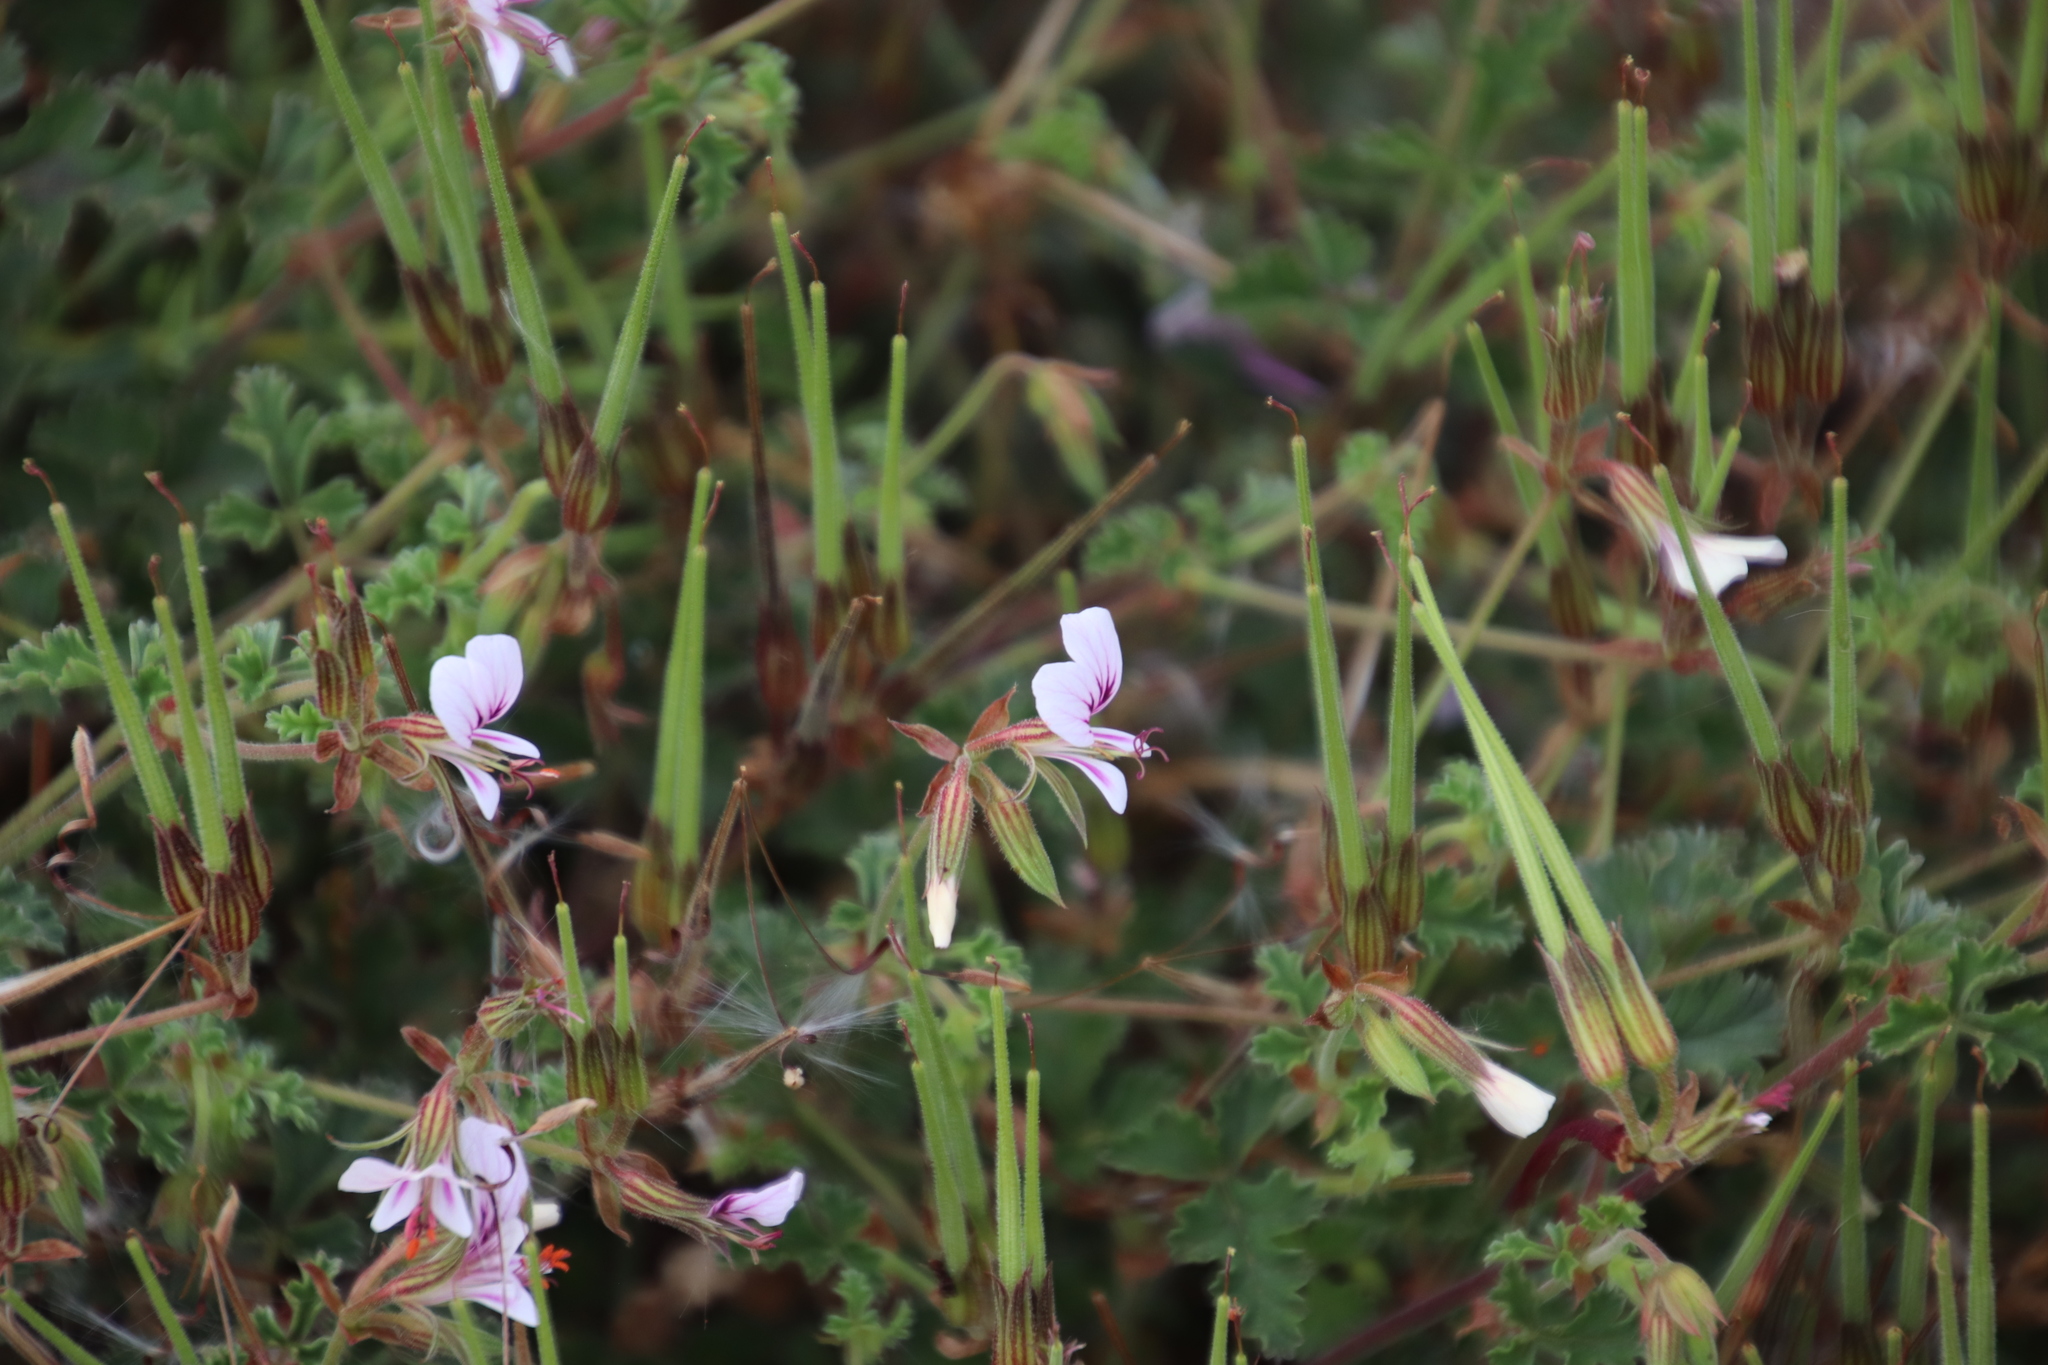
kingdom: Plantae
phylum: Tracheophyta
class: Magnoliopsida
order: Geraniales
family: Geraniaceae
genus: Pelargonium
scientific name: Pelargonium candicans
